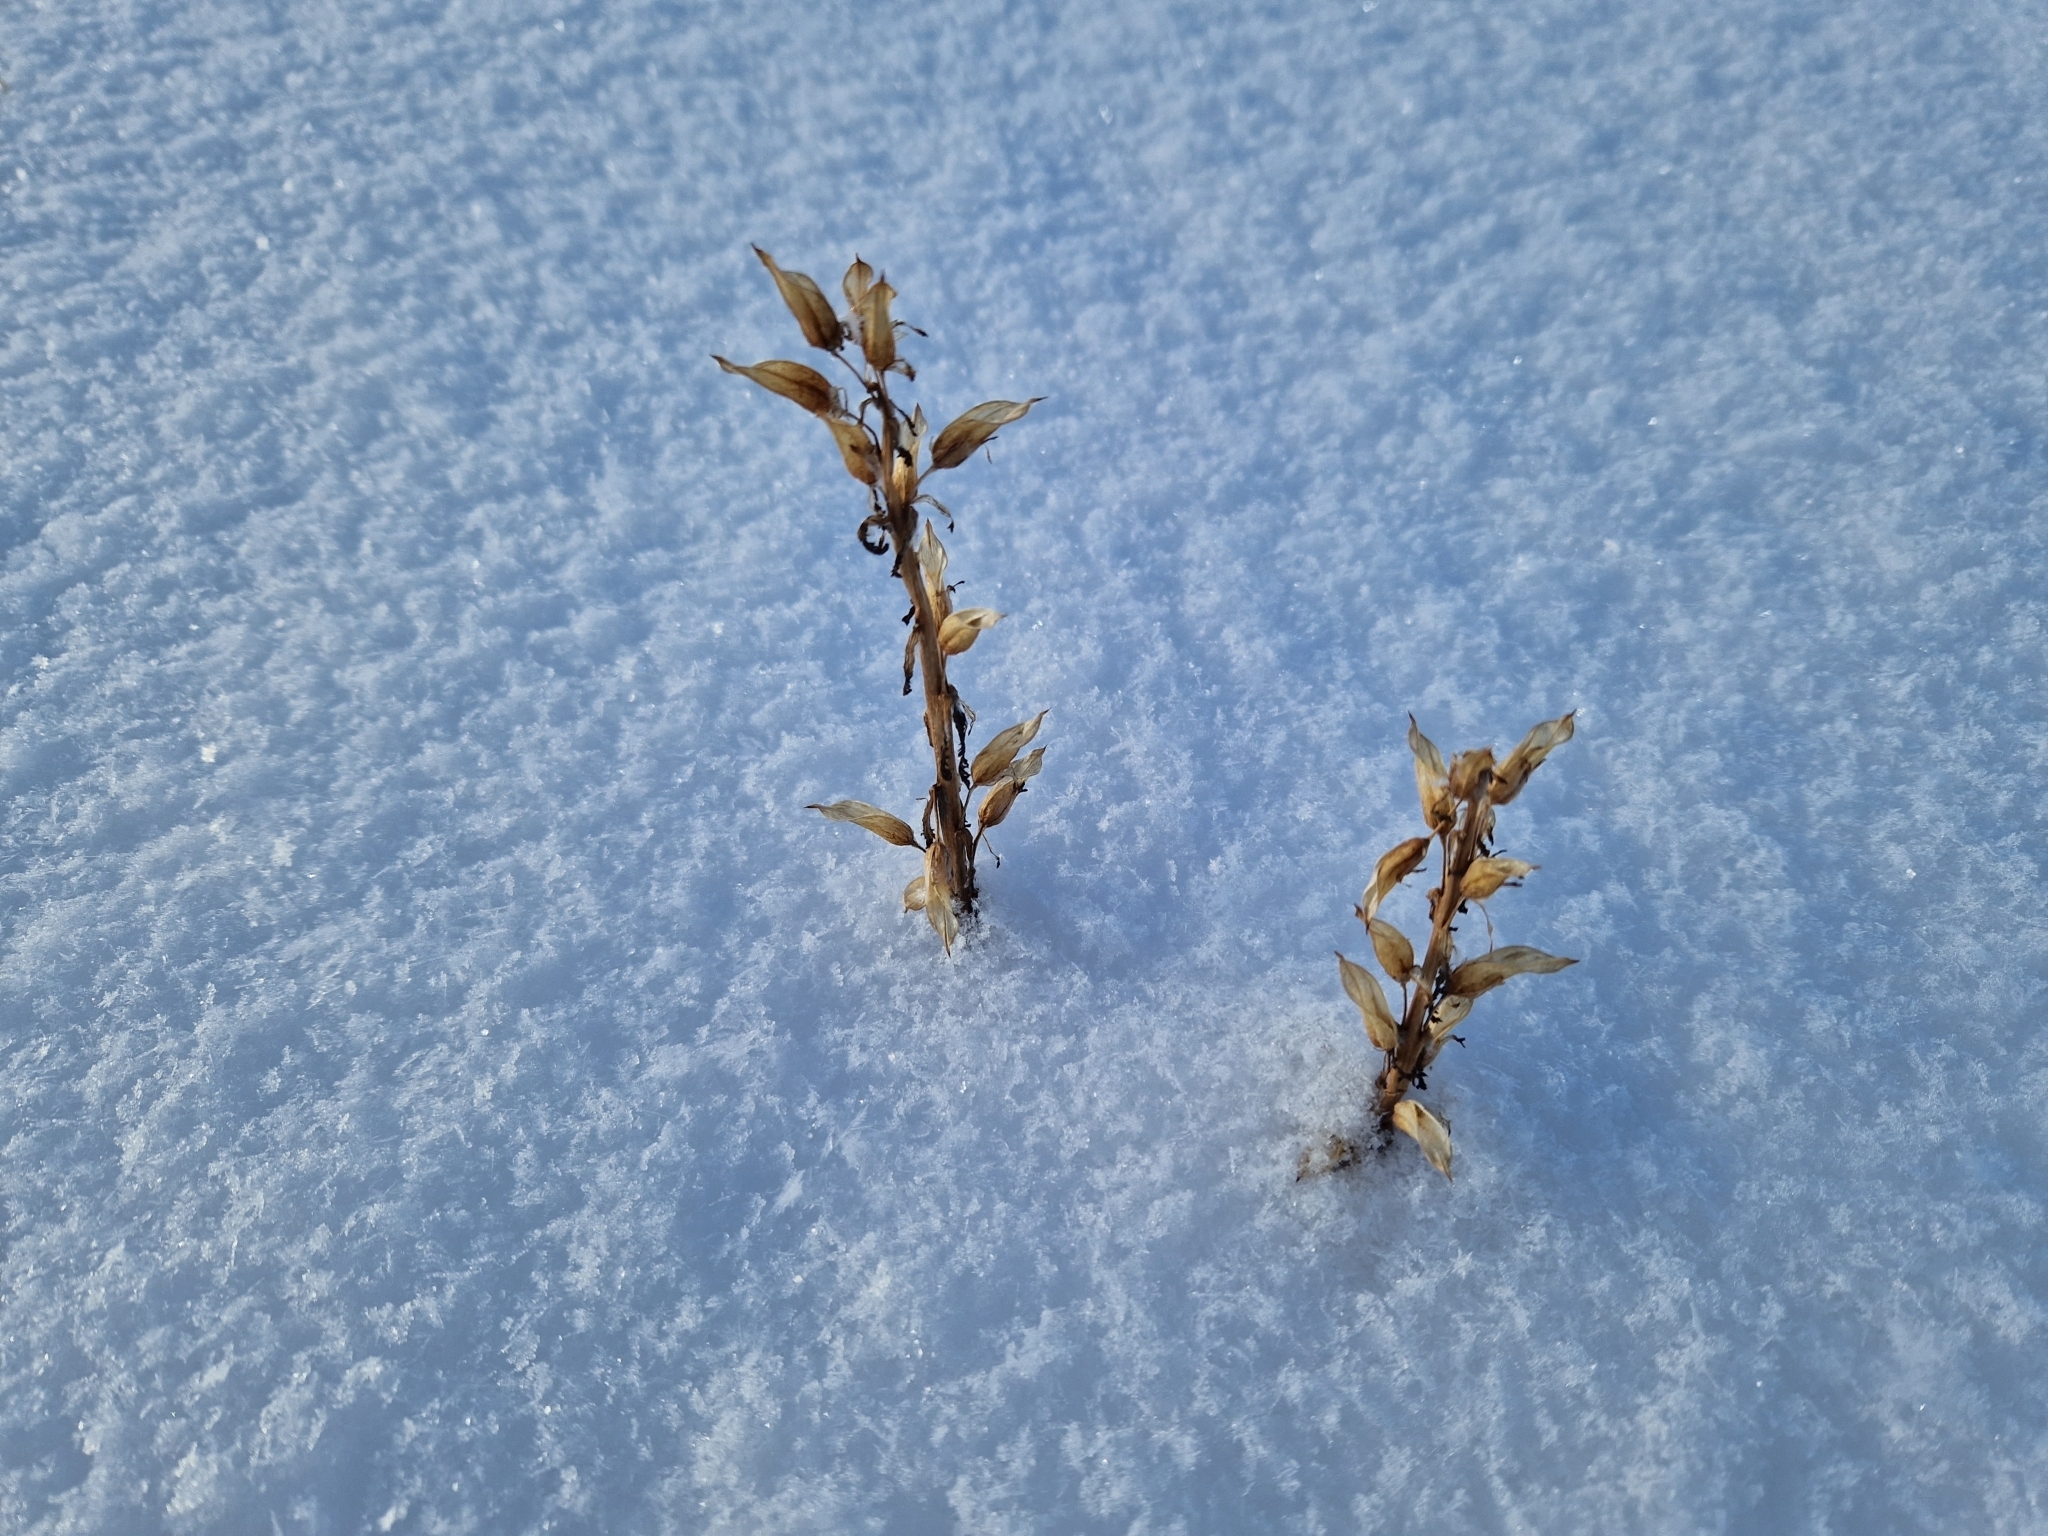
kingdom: Plantae
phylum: Tracheophyta
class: Magnoliopsida
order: Lamiales
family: Orobanchaceae
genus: Pedicularis
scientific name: Pedicularis flammea
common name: Flame-coloured lousewort
